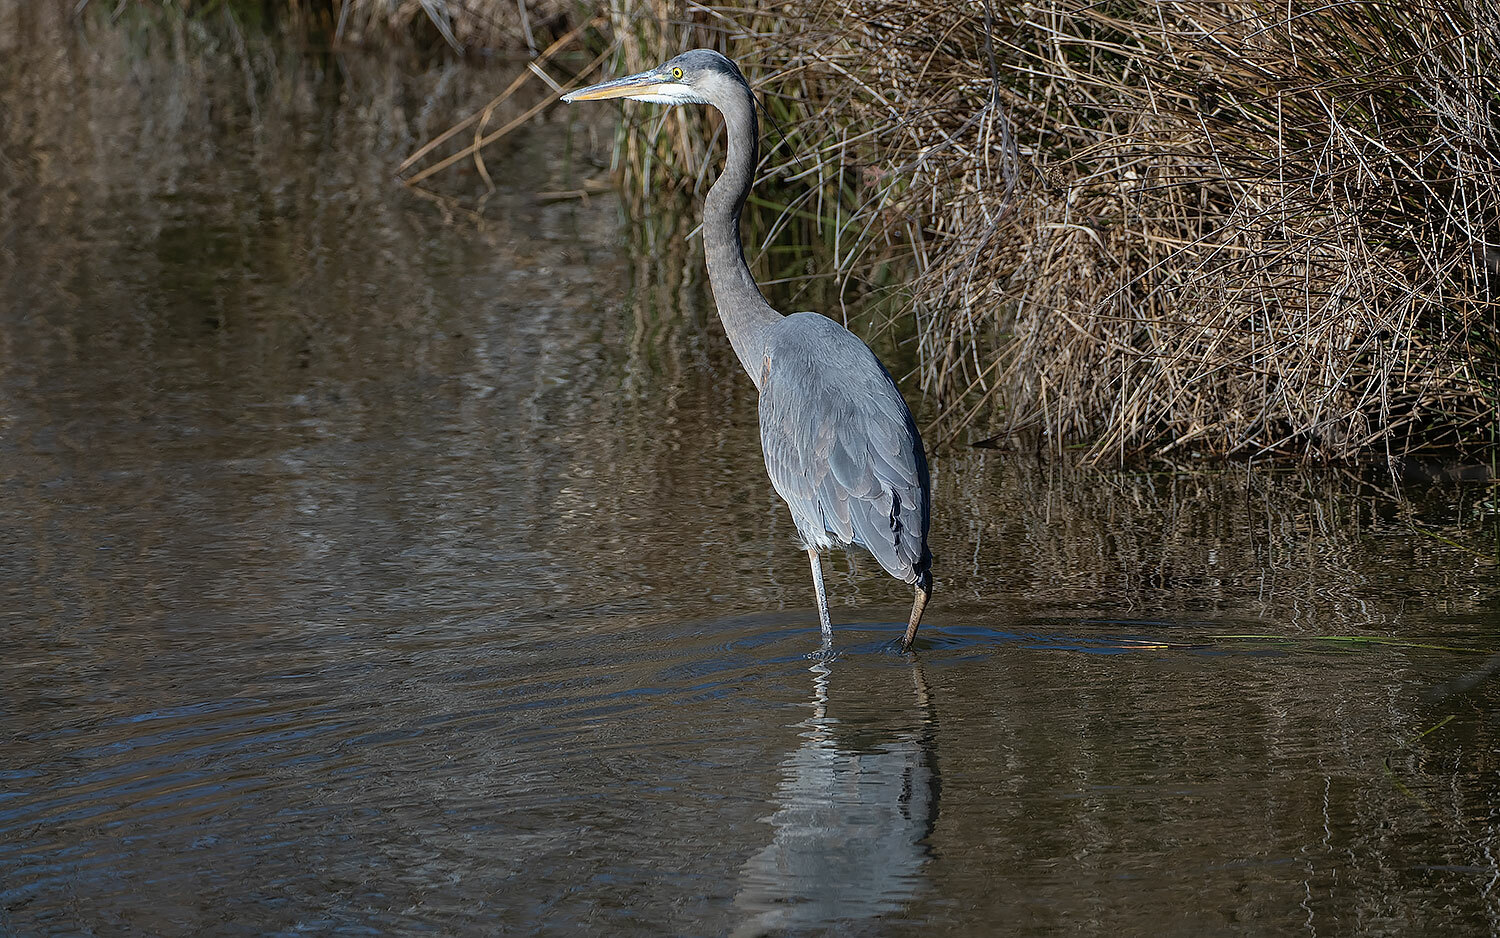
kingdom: Animalia
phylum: Chordata
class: Aves
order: Pelecaniformes
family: Ardeidae
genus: Ardea
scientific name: Ardea herodias
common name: Great blue heron
